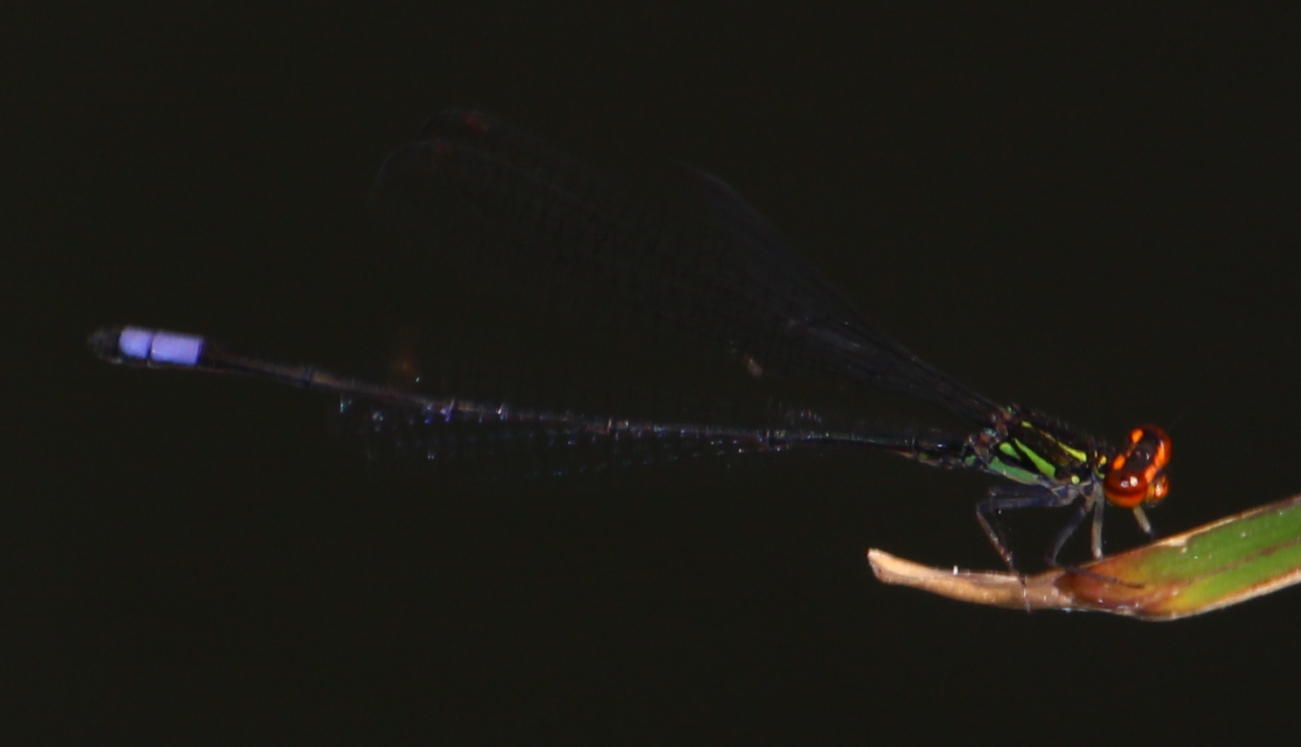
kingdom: Animalia
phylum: Arthropoda
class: Insecta
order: Odonata
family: Coenagrionidae
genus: Pseudagrion
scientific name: Pseudagrion hageni
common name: Painted sprite
